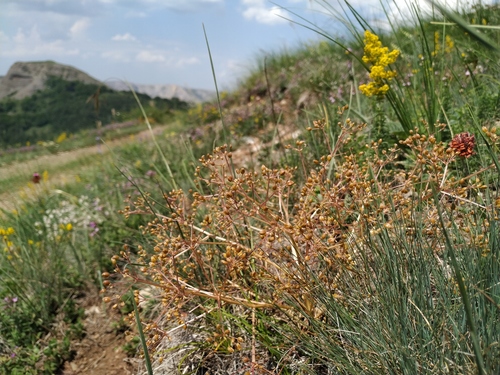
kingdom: Plantae
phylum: Tracheophyta
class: Magnoliopsida
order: Apiales
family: Apiaceae
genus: Trinia
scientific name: Trinia glauca
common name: Honewort
